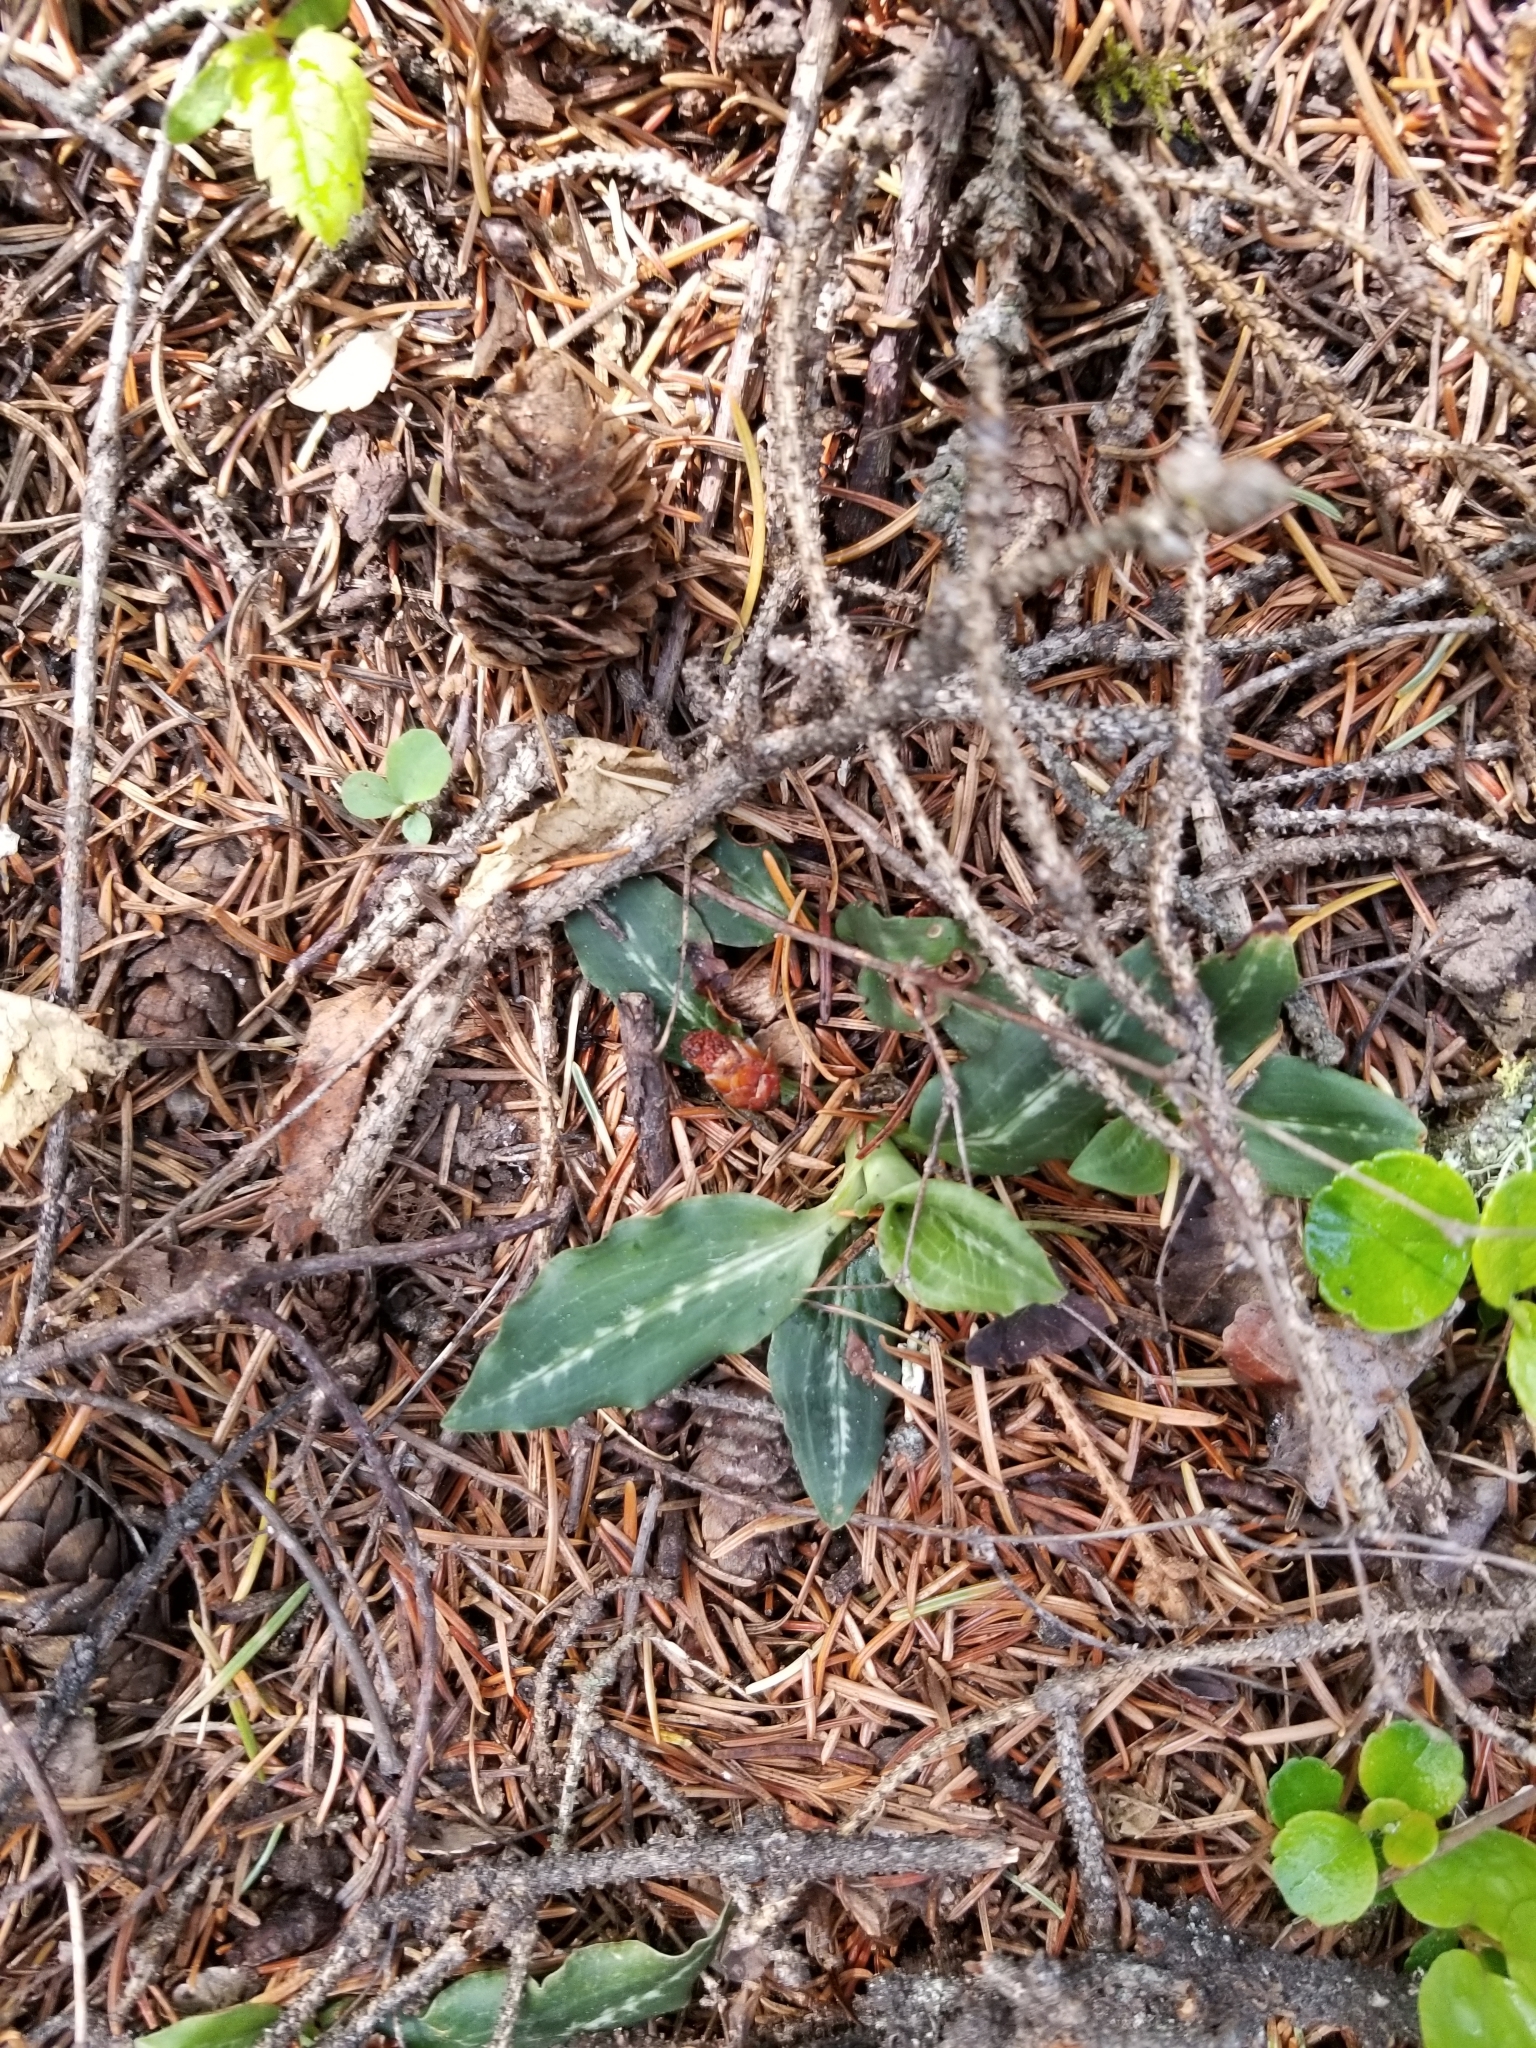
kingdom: Plantae
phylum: Tracheophyta
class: Liliopsida
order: Asparagales
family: Orchidaceae
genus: Goodyera
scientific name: Goodyera oblongifolia
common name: Giant rattlesnake-plantain
